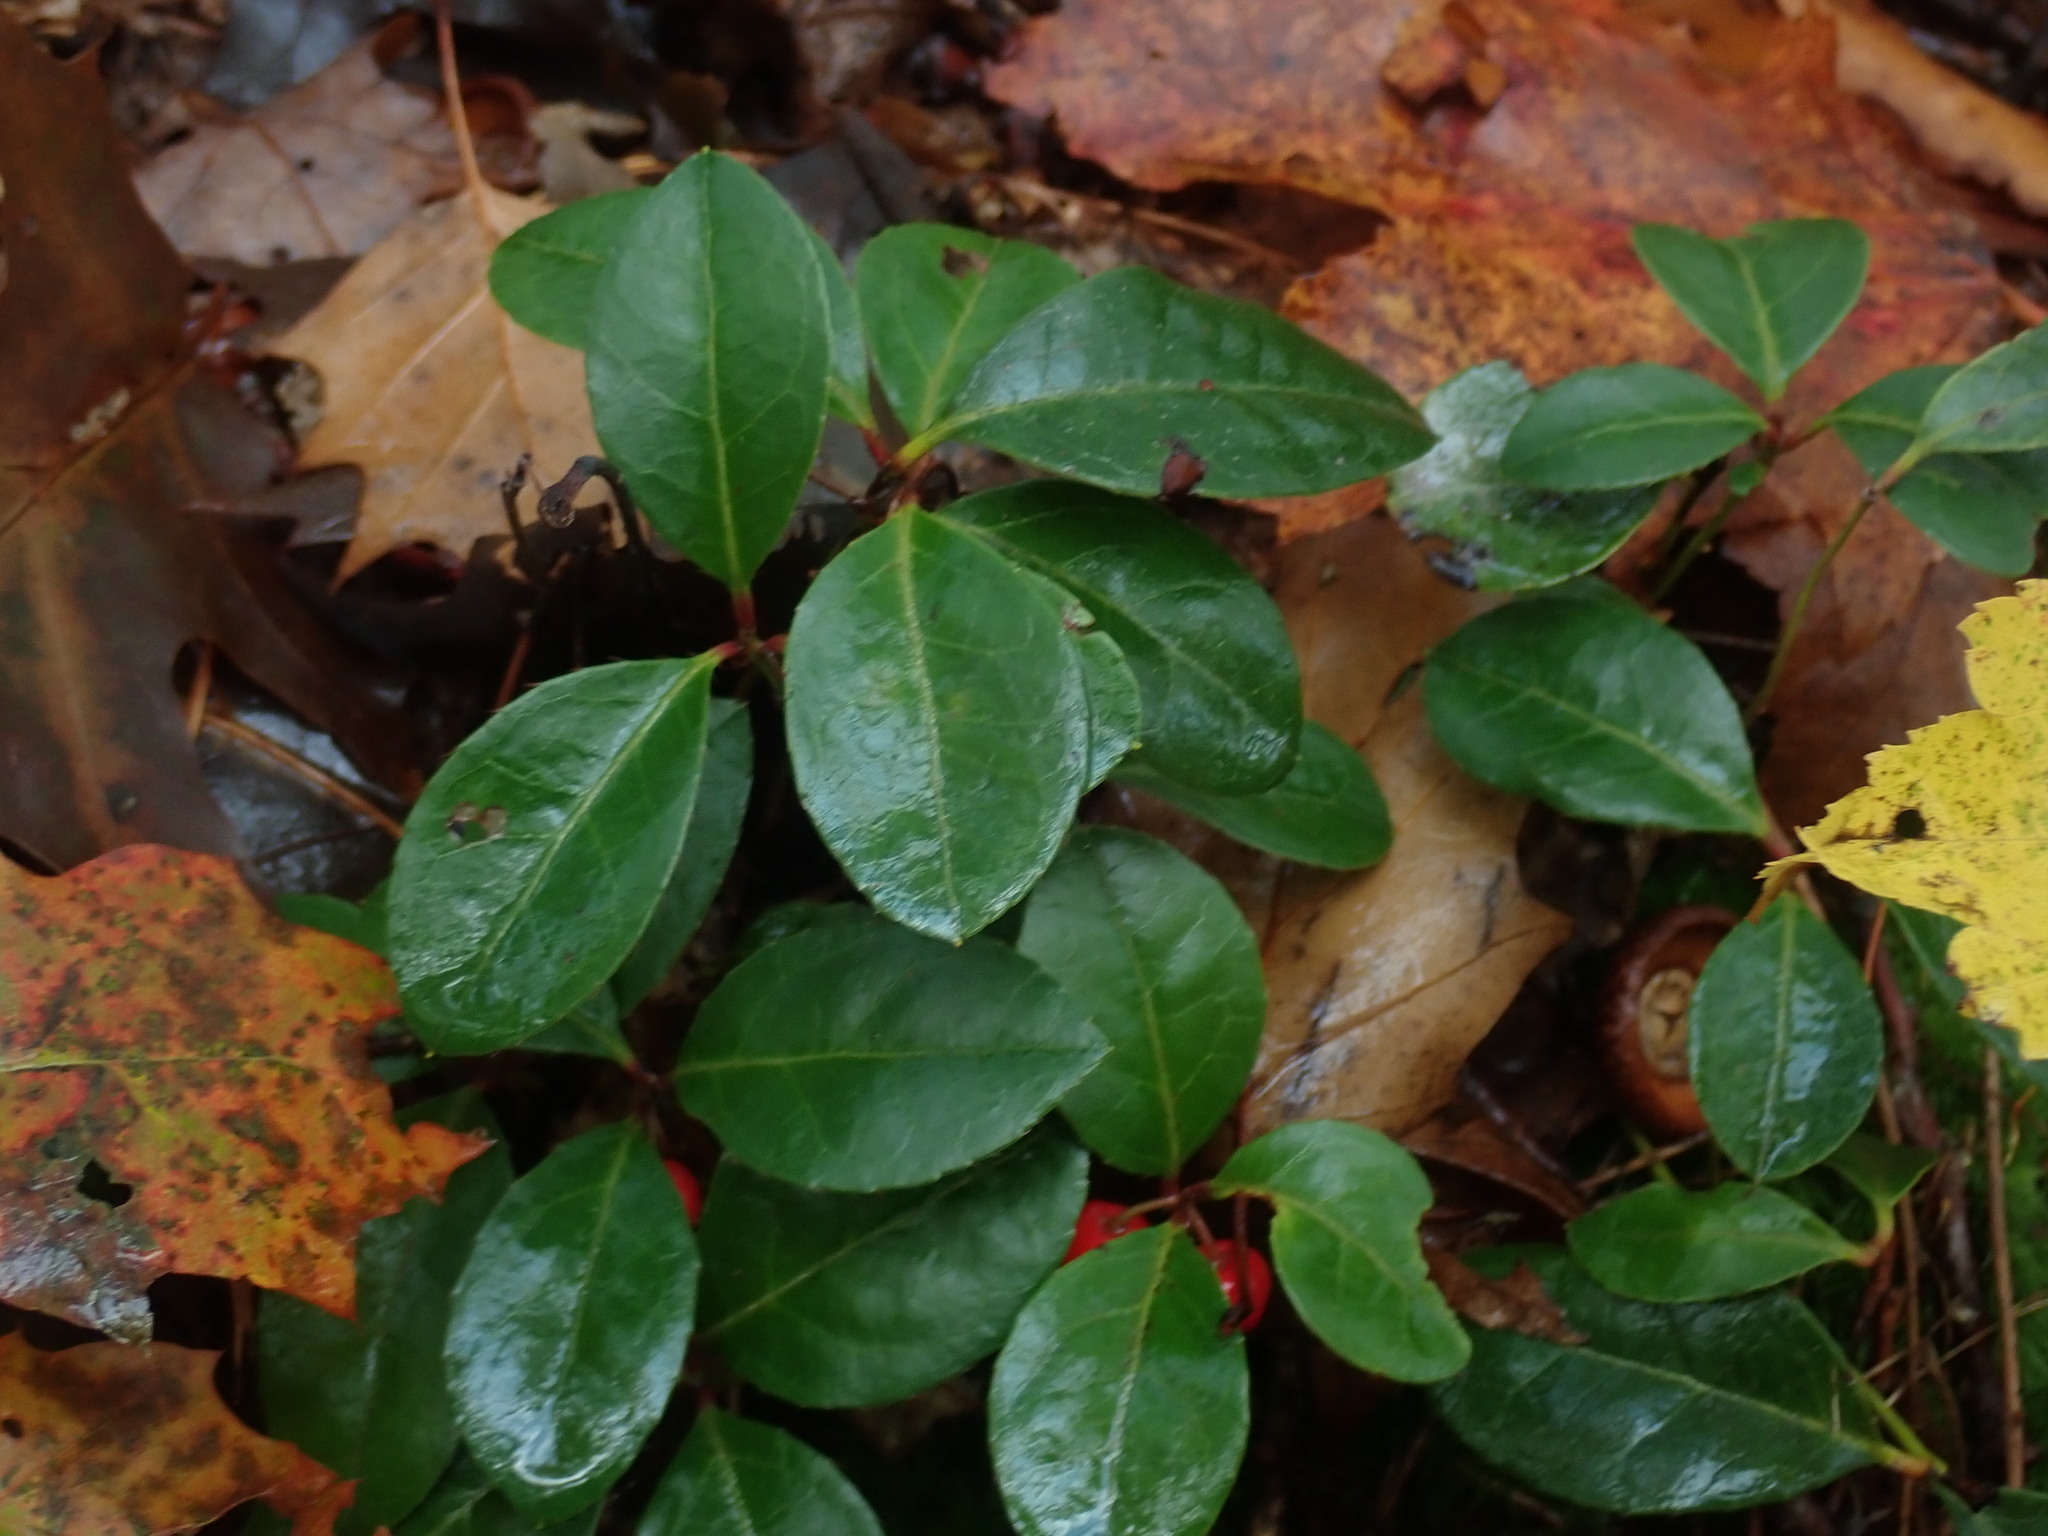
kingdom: Plantae
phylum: Tracheophyta
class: Magnoliopsida
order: Ericales
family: Ericaceae
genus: Gaultheria
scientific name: Gaultheria procumbens
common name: Checkerberry
